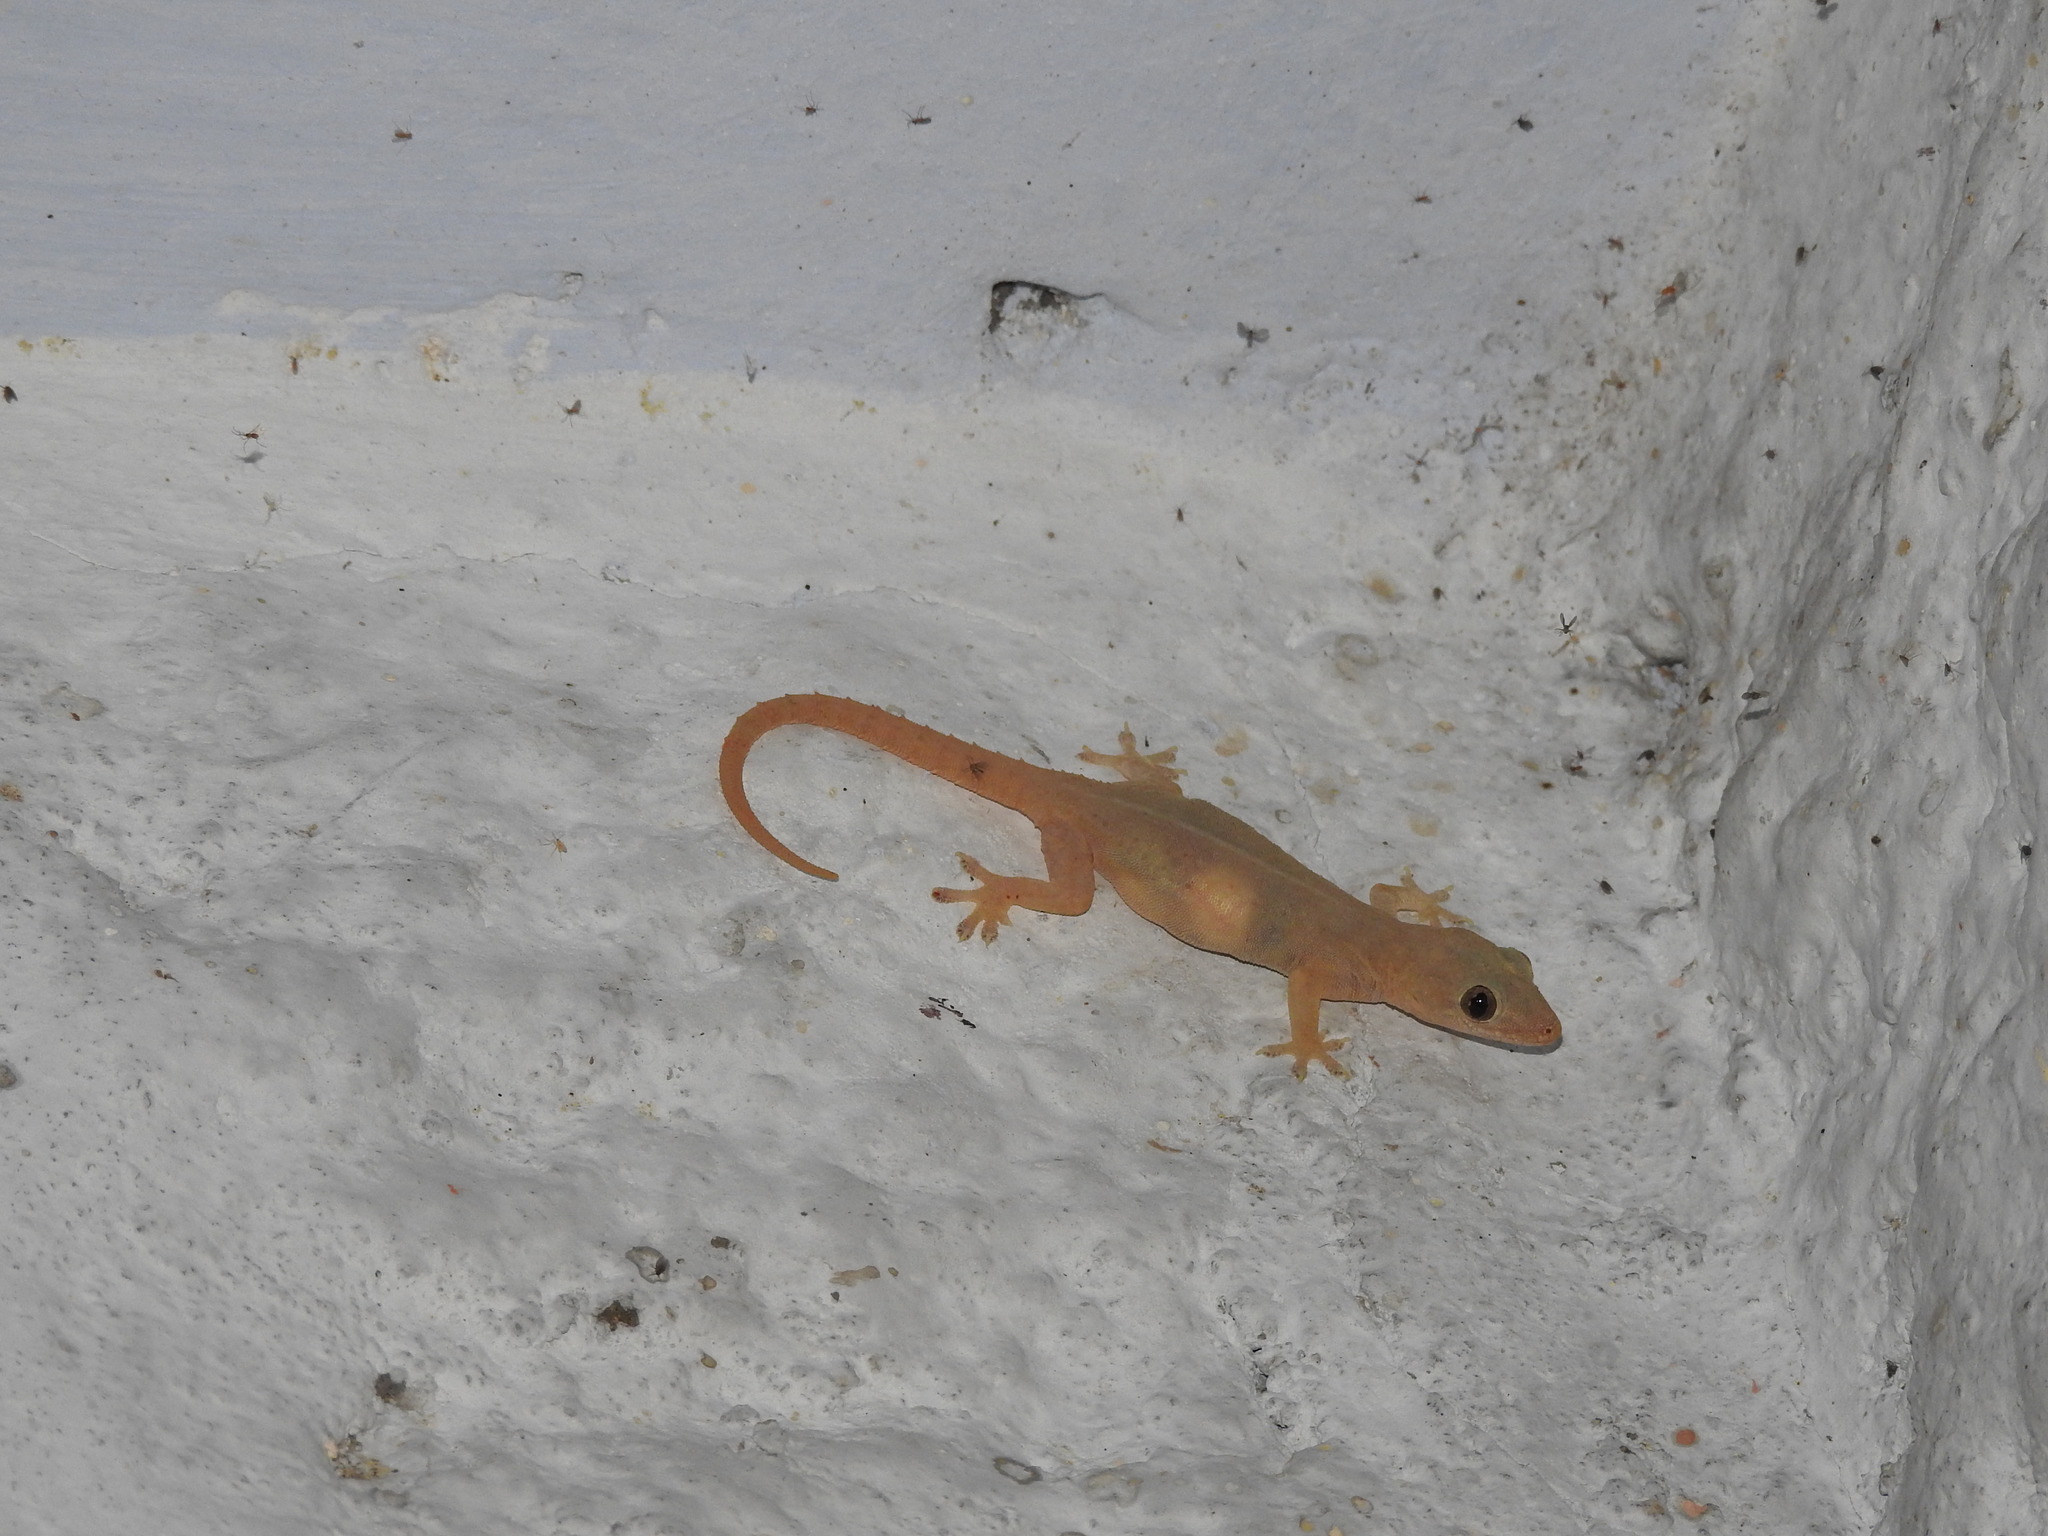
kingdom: Animalia
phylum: Chordata
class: Squamata
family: Gekkonidae
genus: Hemidactylus
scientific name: Hemidactylus frenatus
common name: Common house gecko
